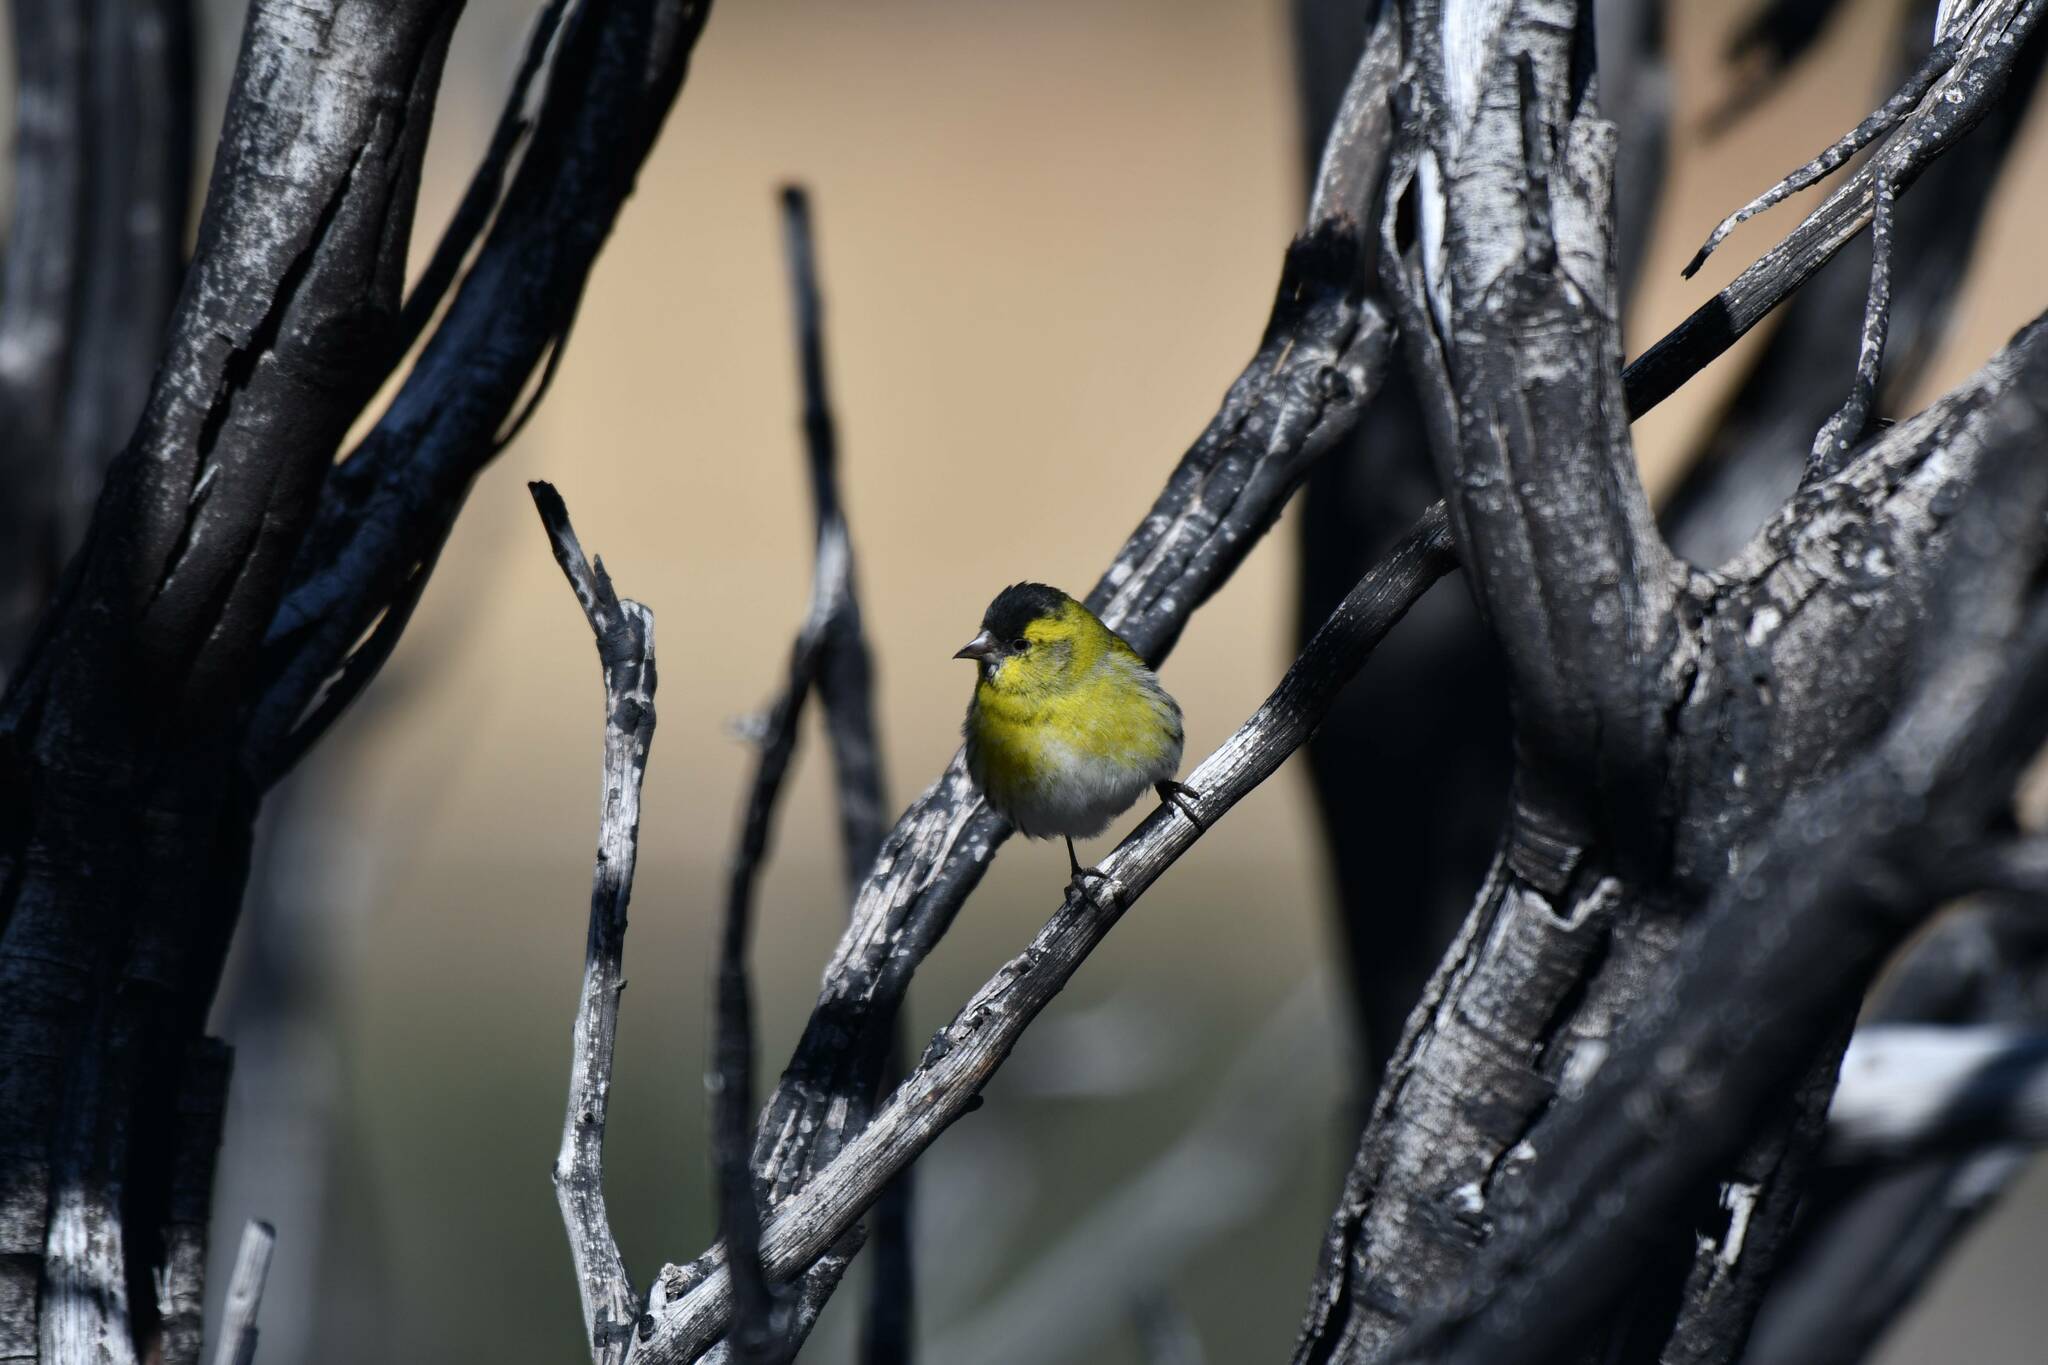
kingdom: Animalia
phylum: Chordata
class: Aves
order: Passeriformes
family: Fringillidae
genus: Spinus
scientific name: Spinus spinus
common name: Eurasian siskin
